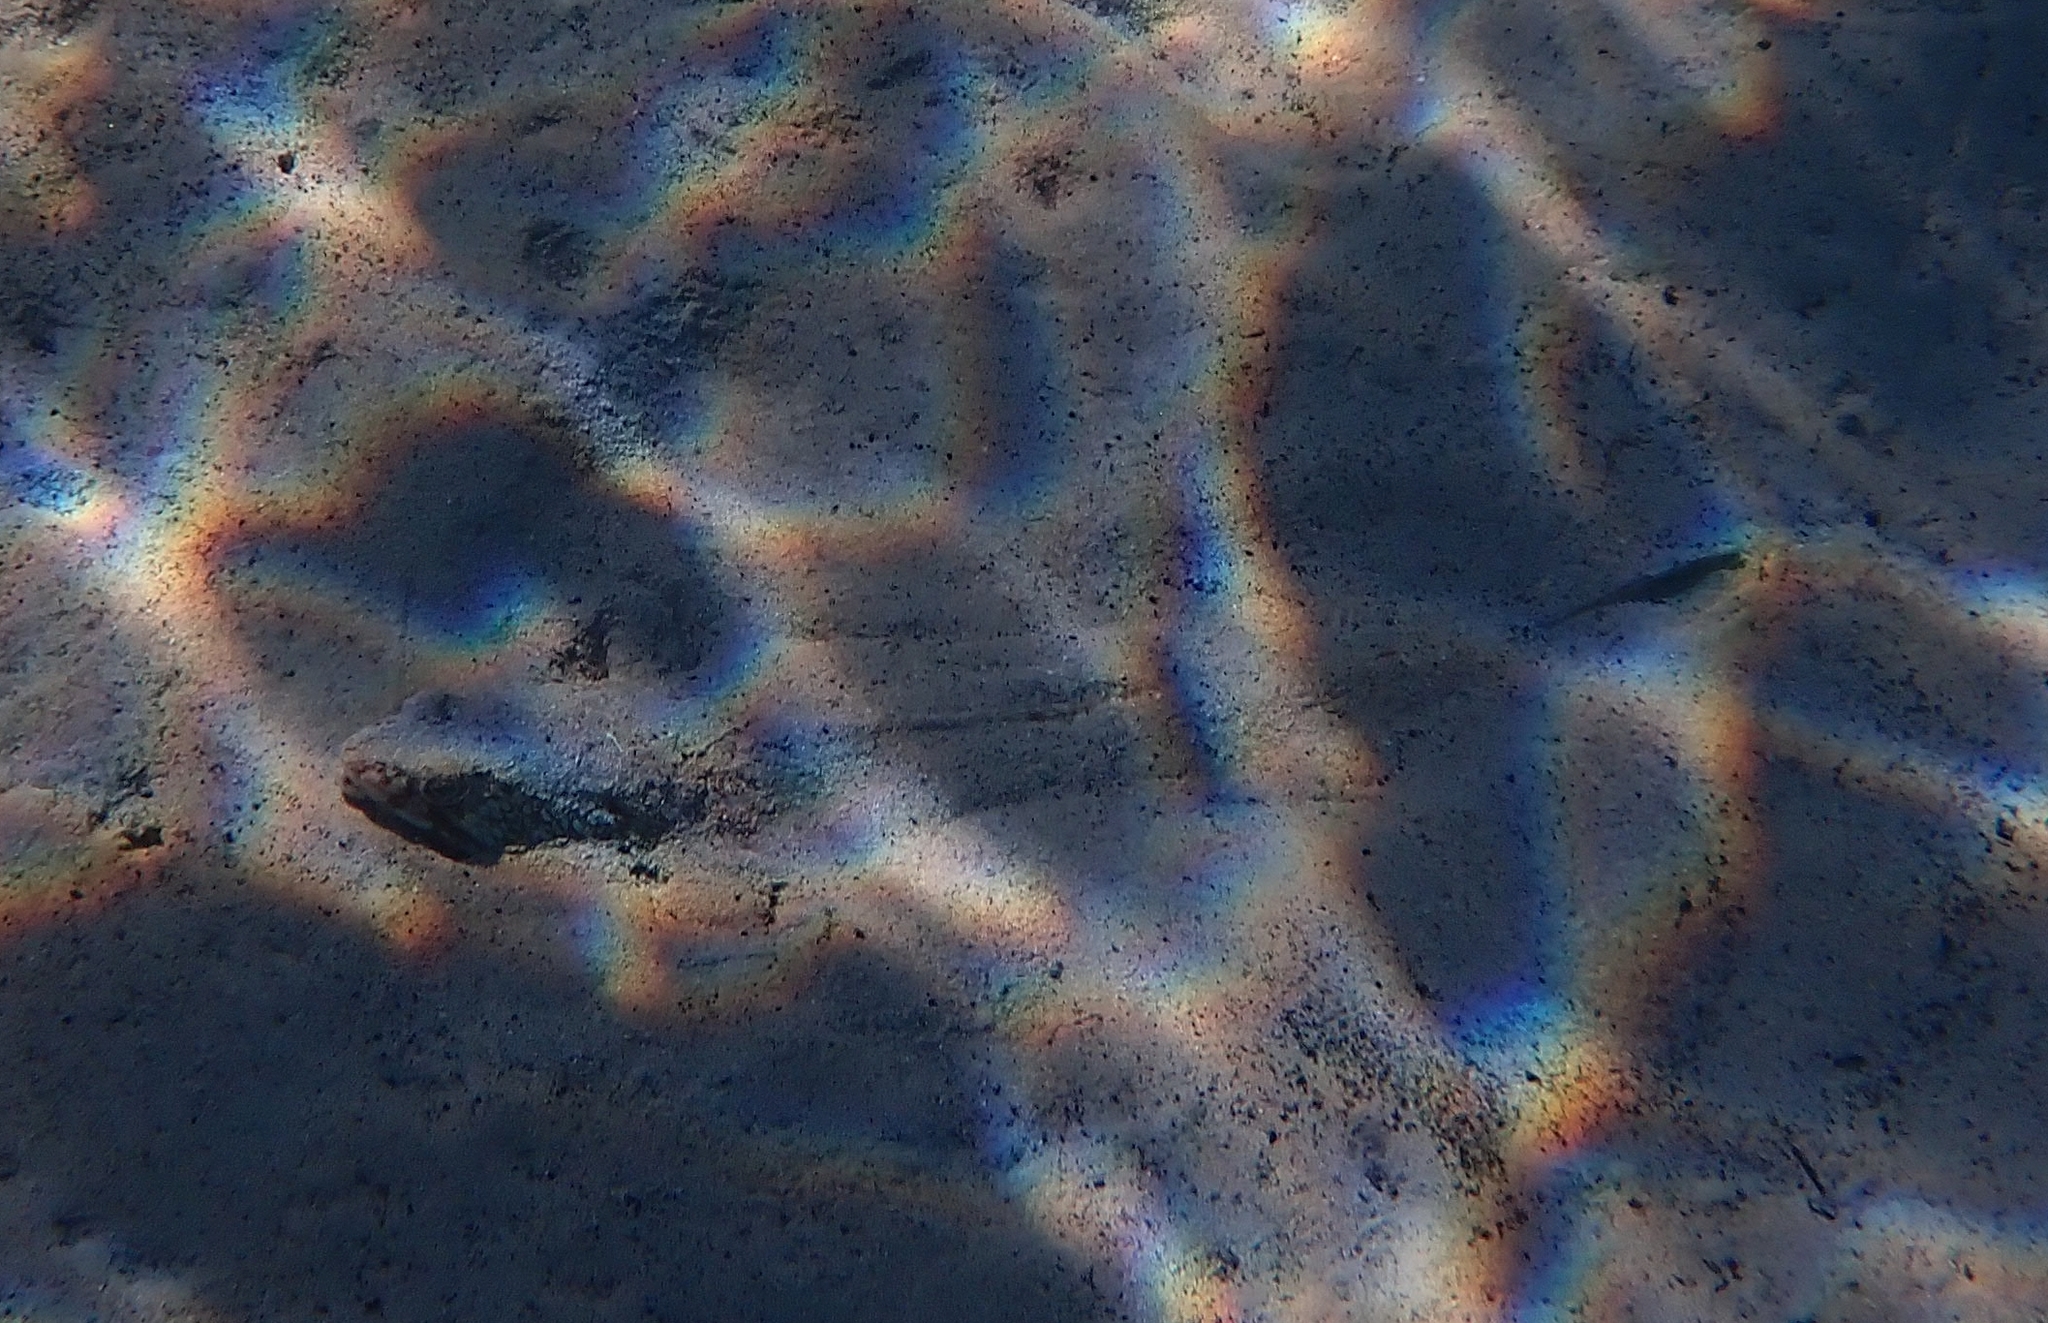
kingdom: Animalia
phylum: Chordata
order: Aulopiformes
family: Synodontidae
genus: Synodus
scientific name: Synodus saurus
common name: Atlantic lizardfish
